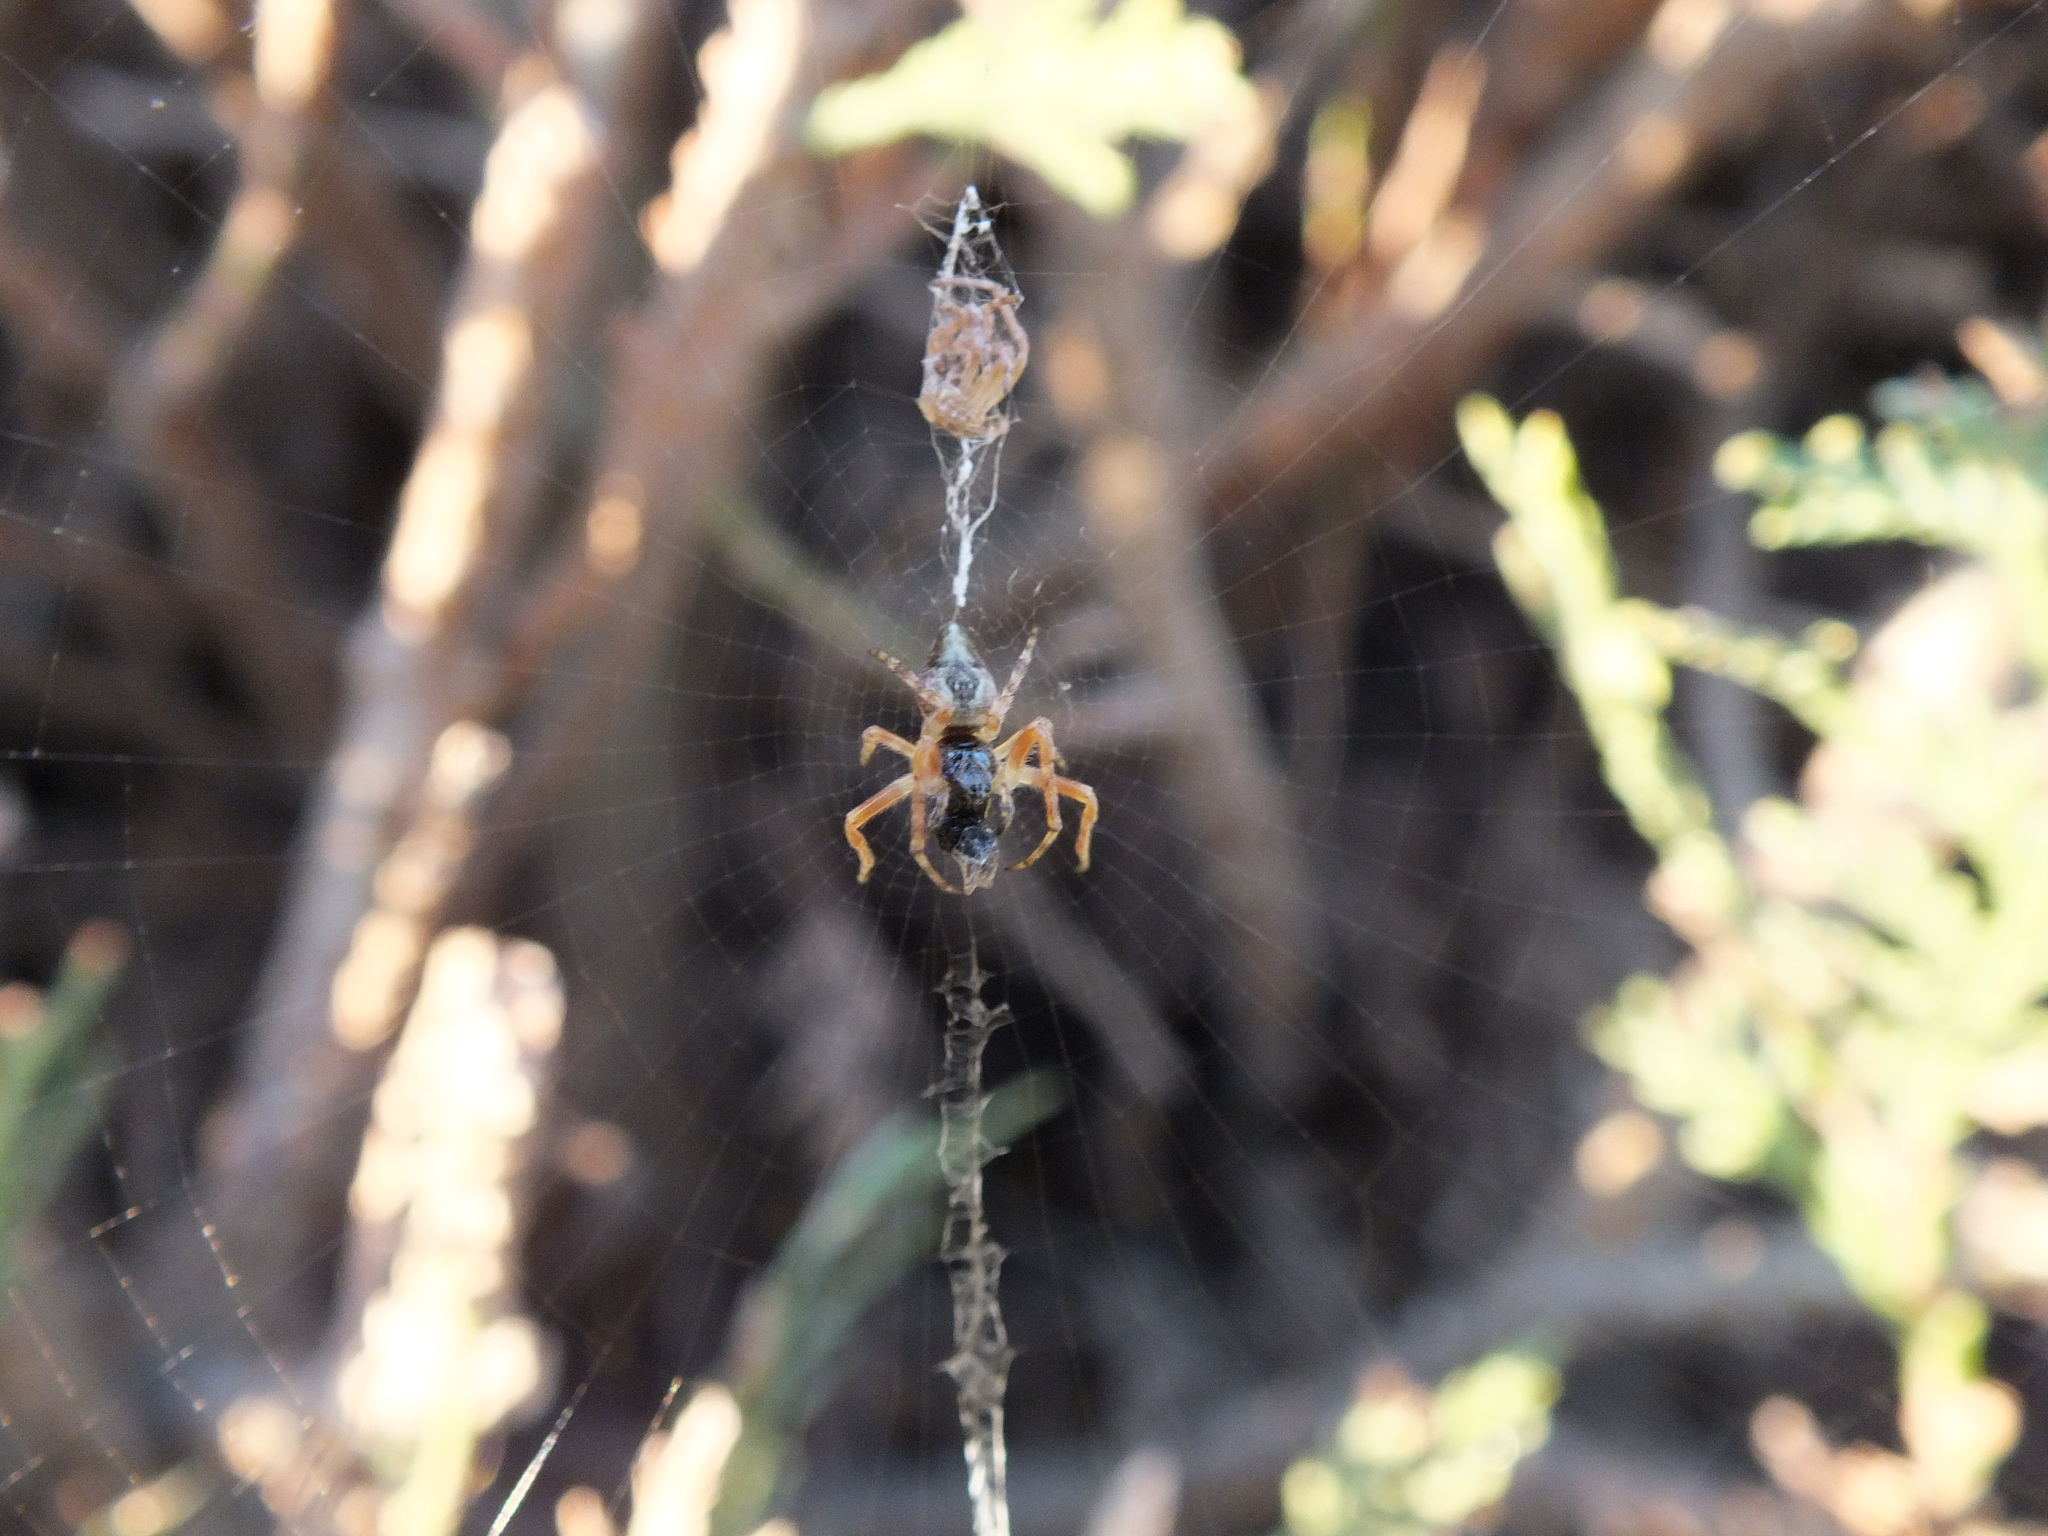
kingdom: Animalia
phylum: Arthropoda
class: Arachnida
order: Araneae
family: Araneidae
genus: Cyclosa
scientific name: Cyclosa conica
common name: Conical trashline orbweaver
